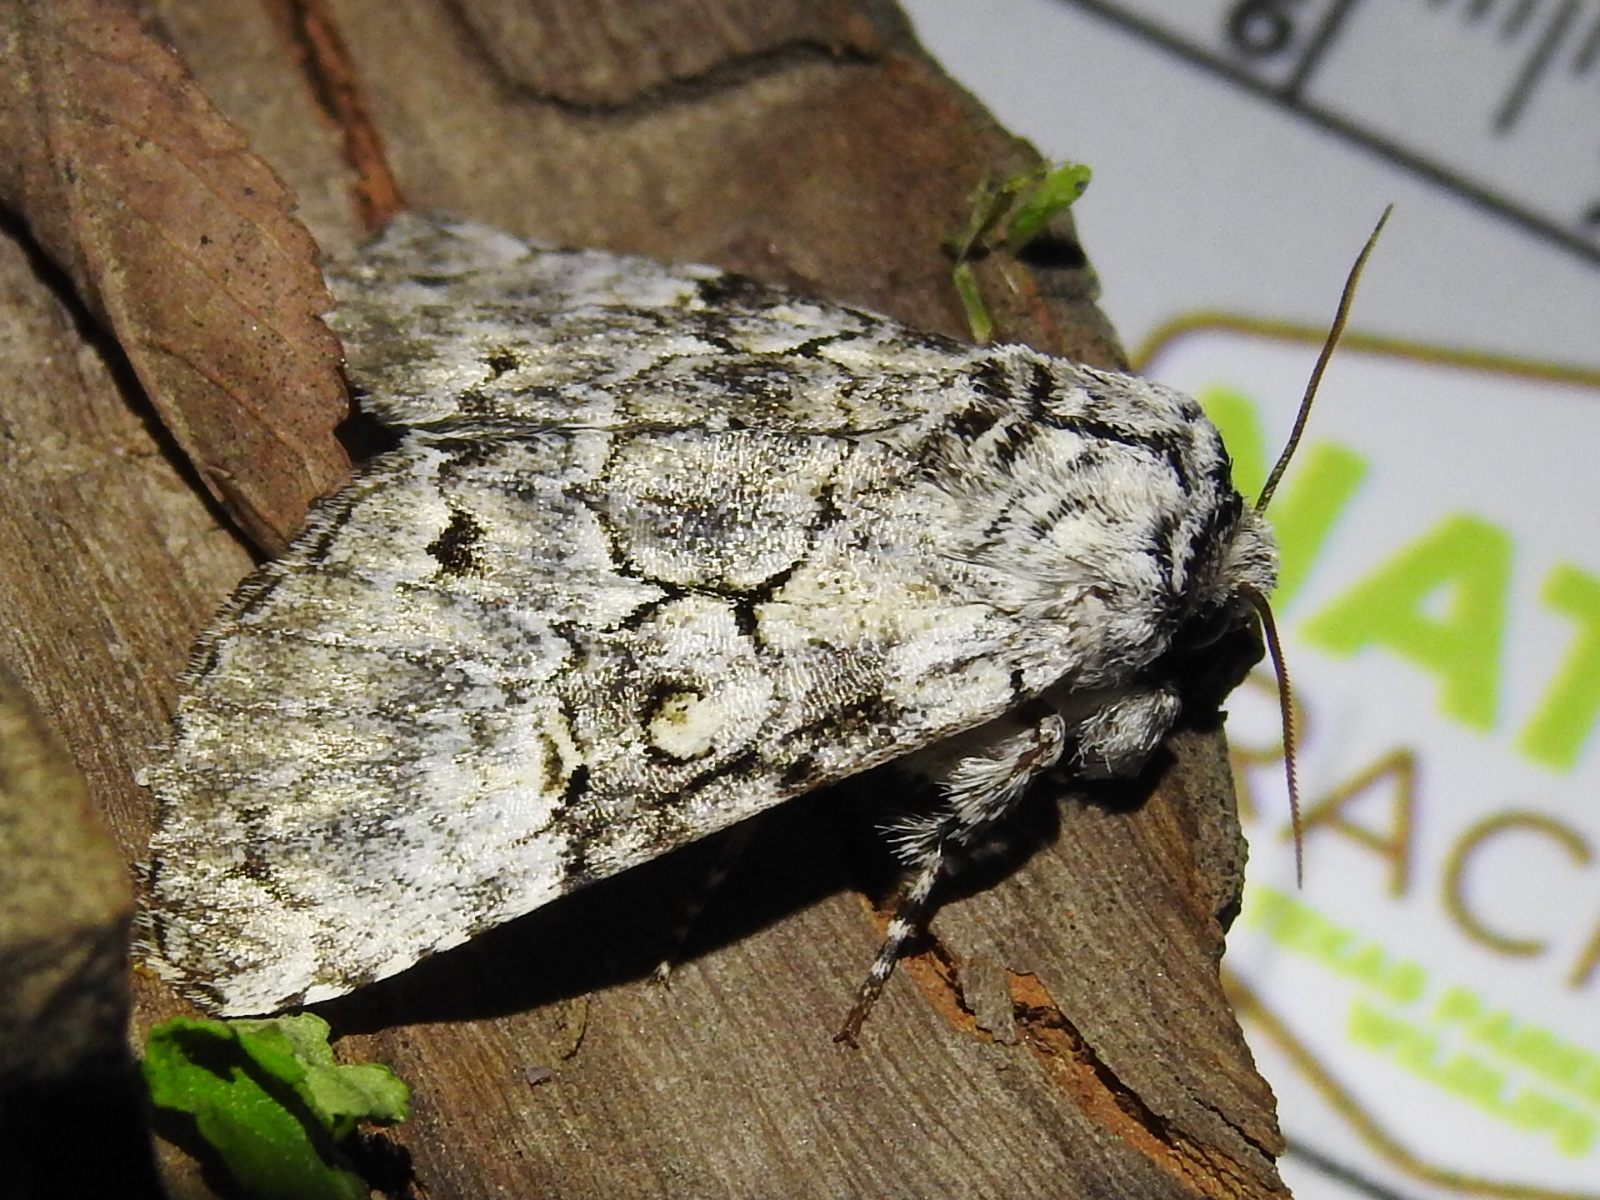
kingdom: Animalia
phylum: Arthropoda
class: Insecta
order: Lepidoptera
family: Noctuidae
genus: Charadra
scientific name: Charadra deridens
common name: Marbled tuffet
